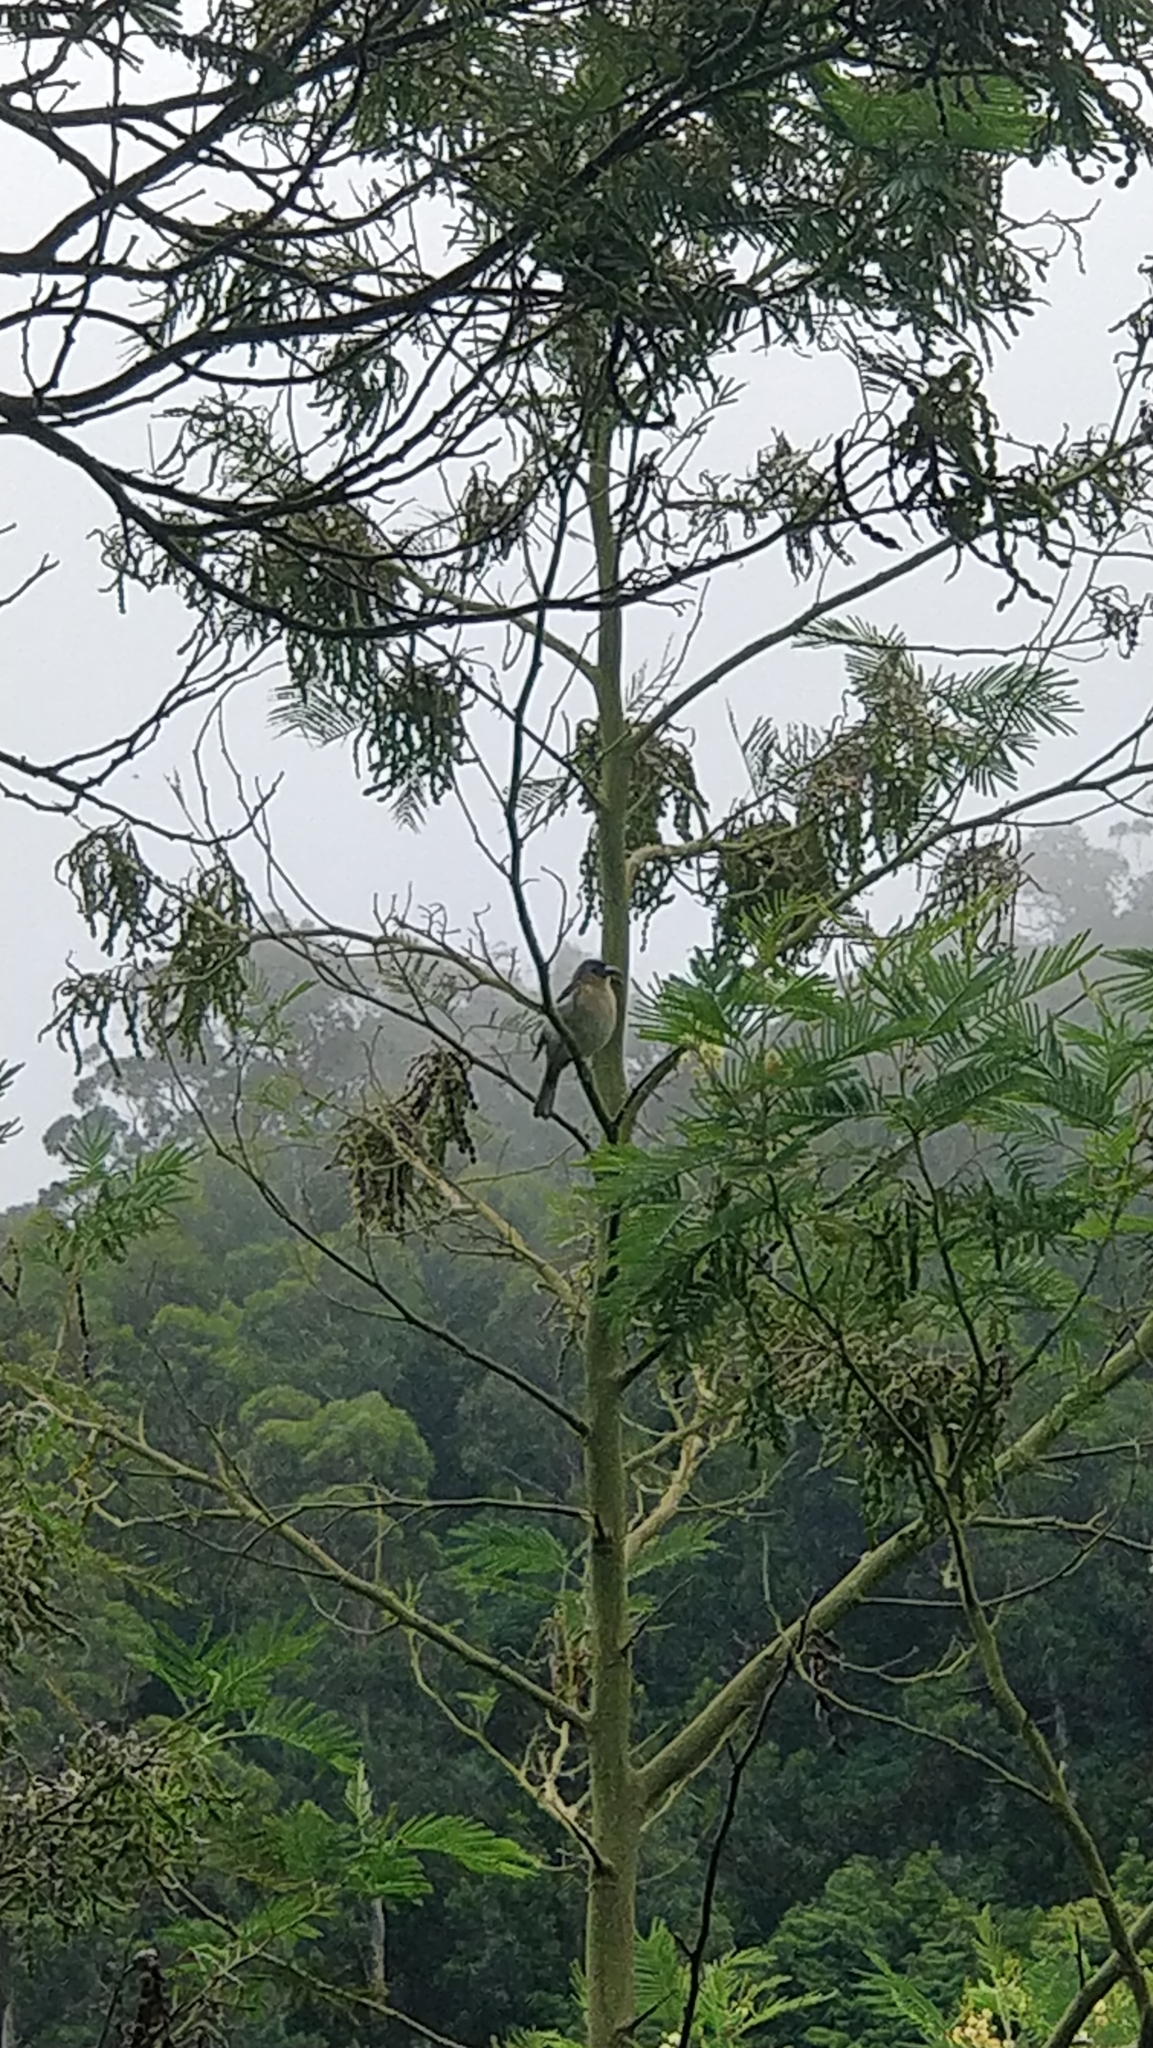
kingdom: Animalia
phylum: Chordata
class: Aves
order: Passeriformes
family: Fringillidae
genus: Fringilla
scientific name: Fringilla maderensis
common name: Madeira chaffinch
